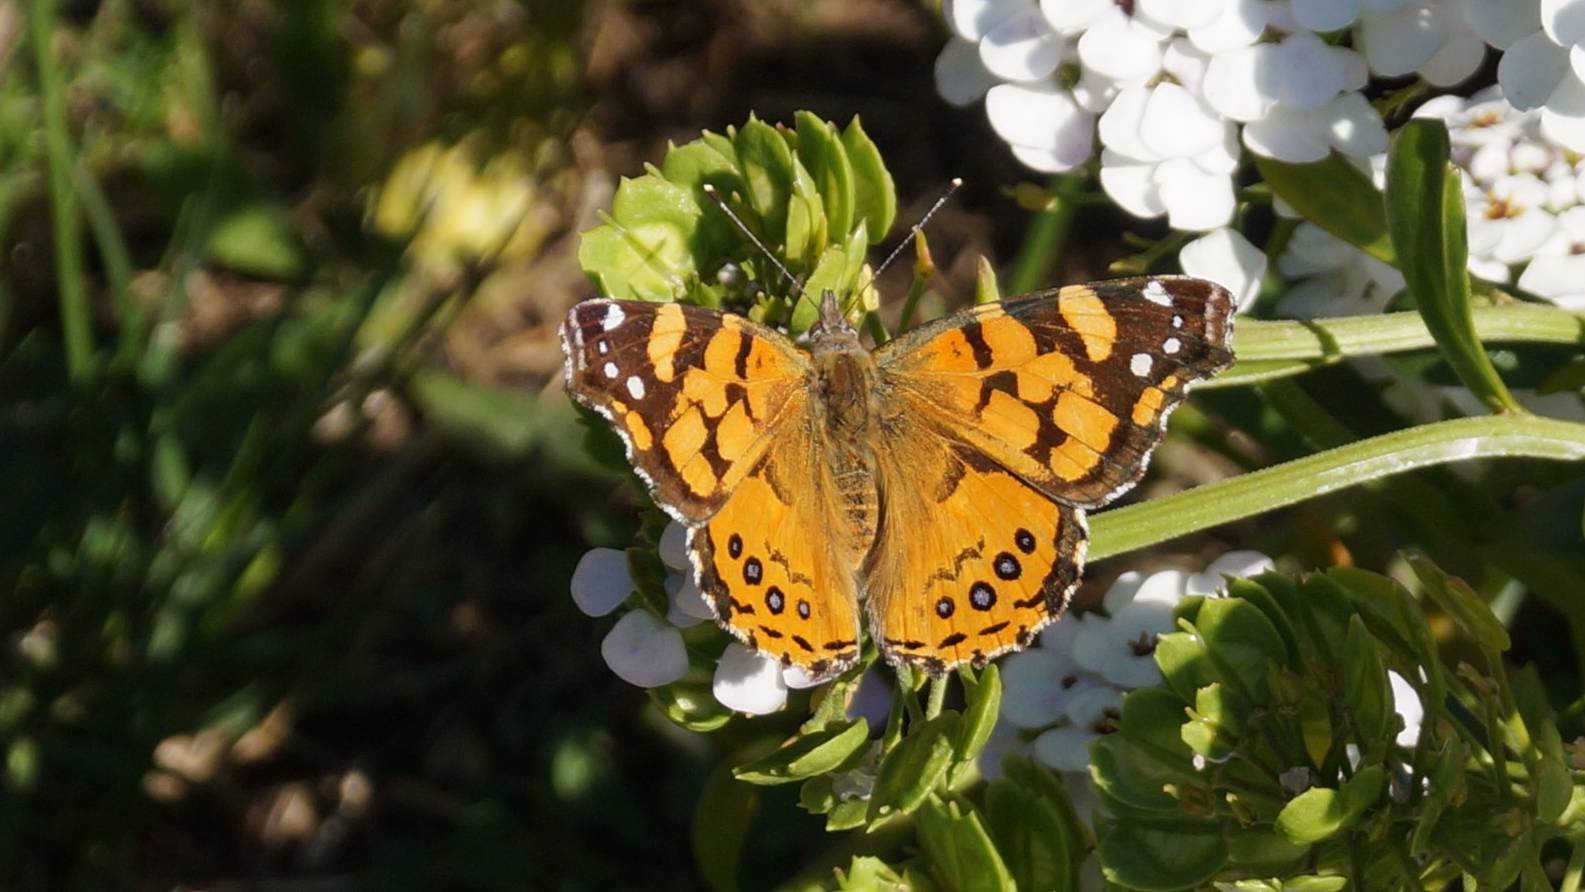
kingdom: Animalia
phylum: Arthropoda
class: Insecta
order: Lepidoptera
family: Nymphalidae
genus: Vanessa
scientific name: Vanessa annabella
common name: West coast lady
